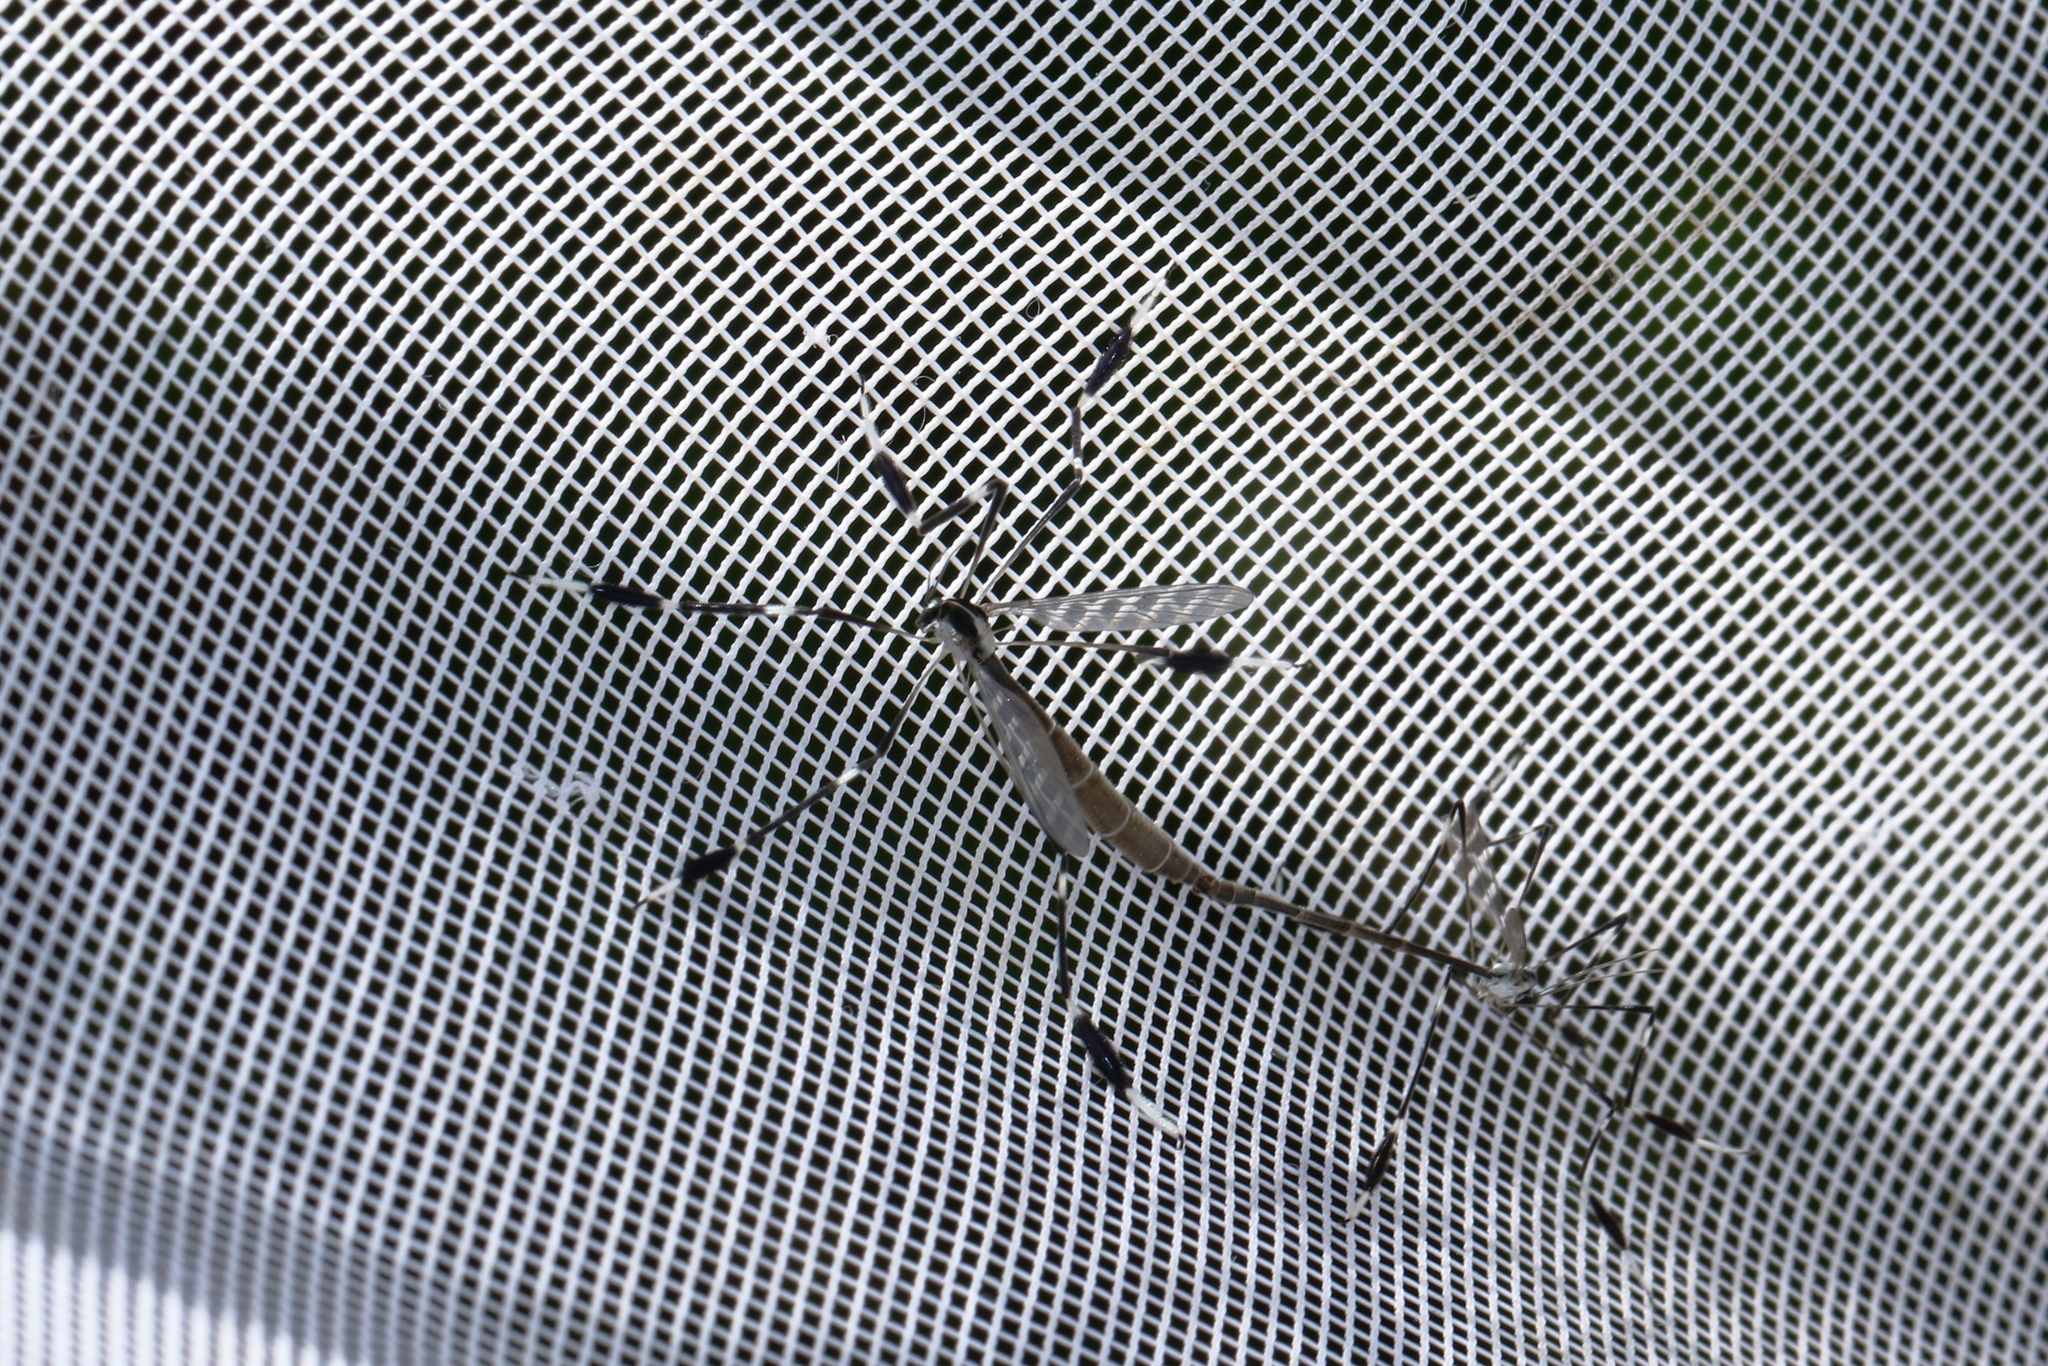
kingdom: Animalia
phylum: Arthropoda
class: Insecta
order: Diptera
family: Ptychopteridae
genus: Bittacomorpha
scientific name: Bittacomorpha clavipes
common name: Eastern phantom crane fly
